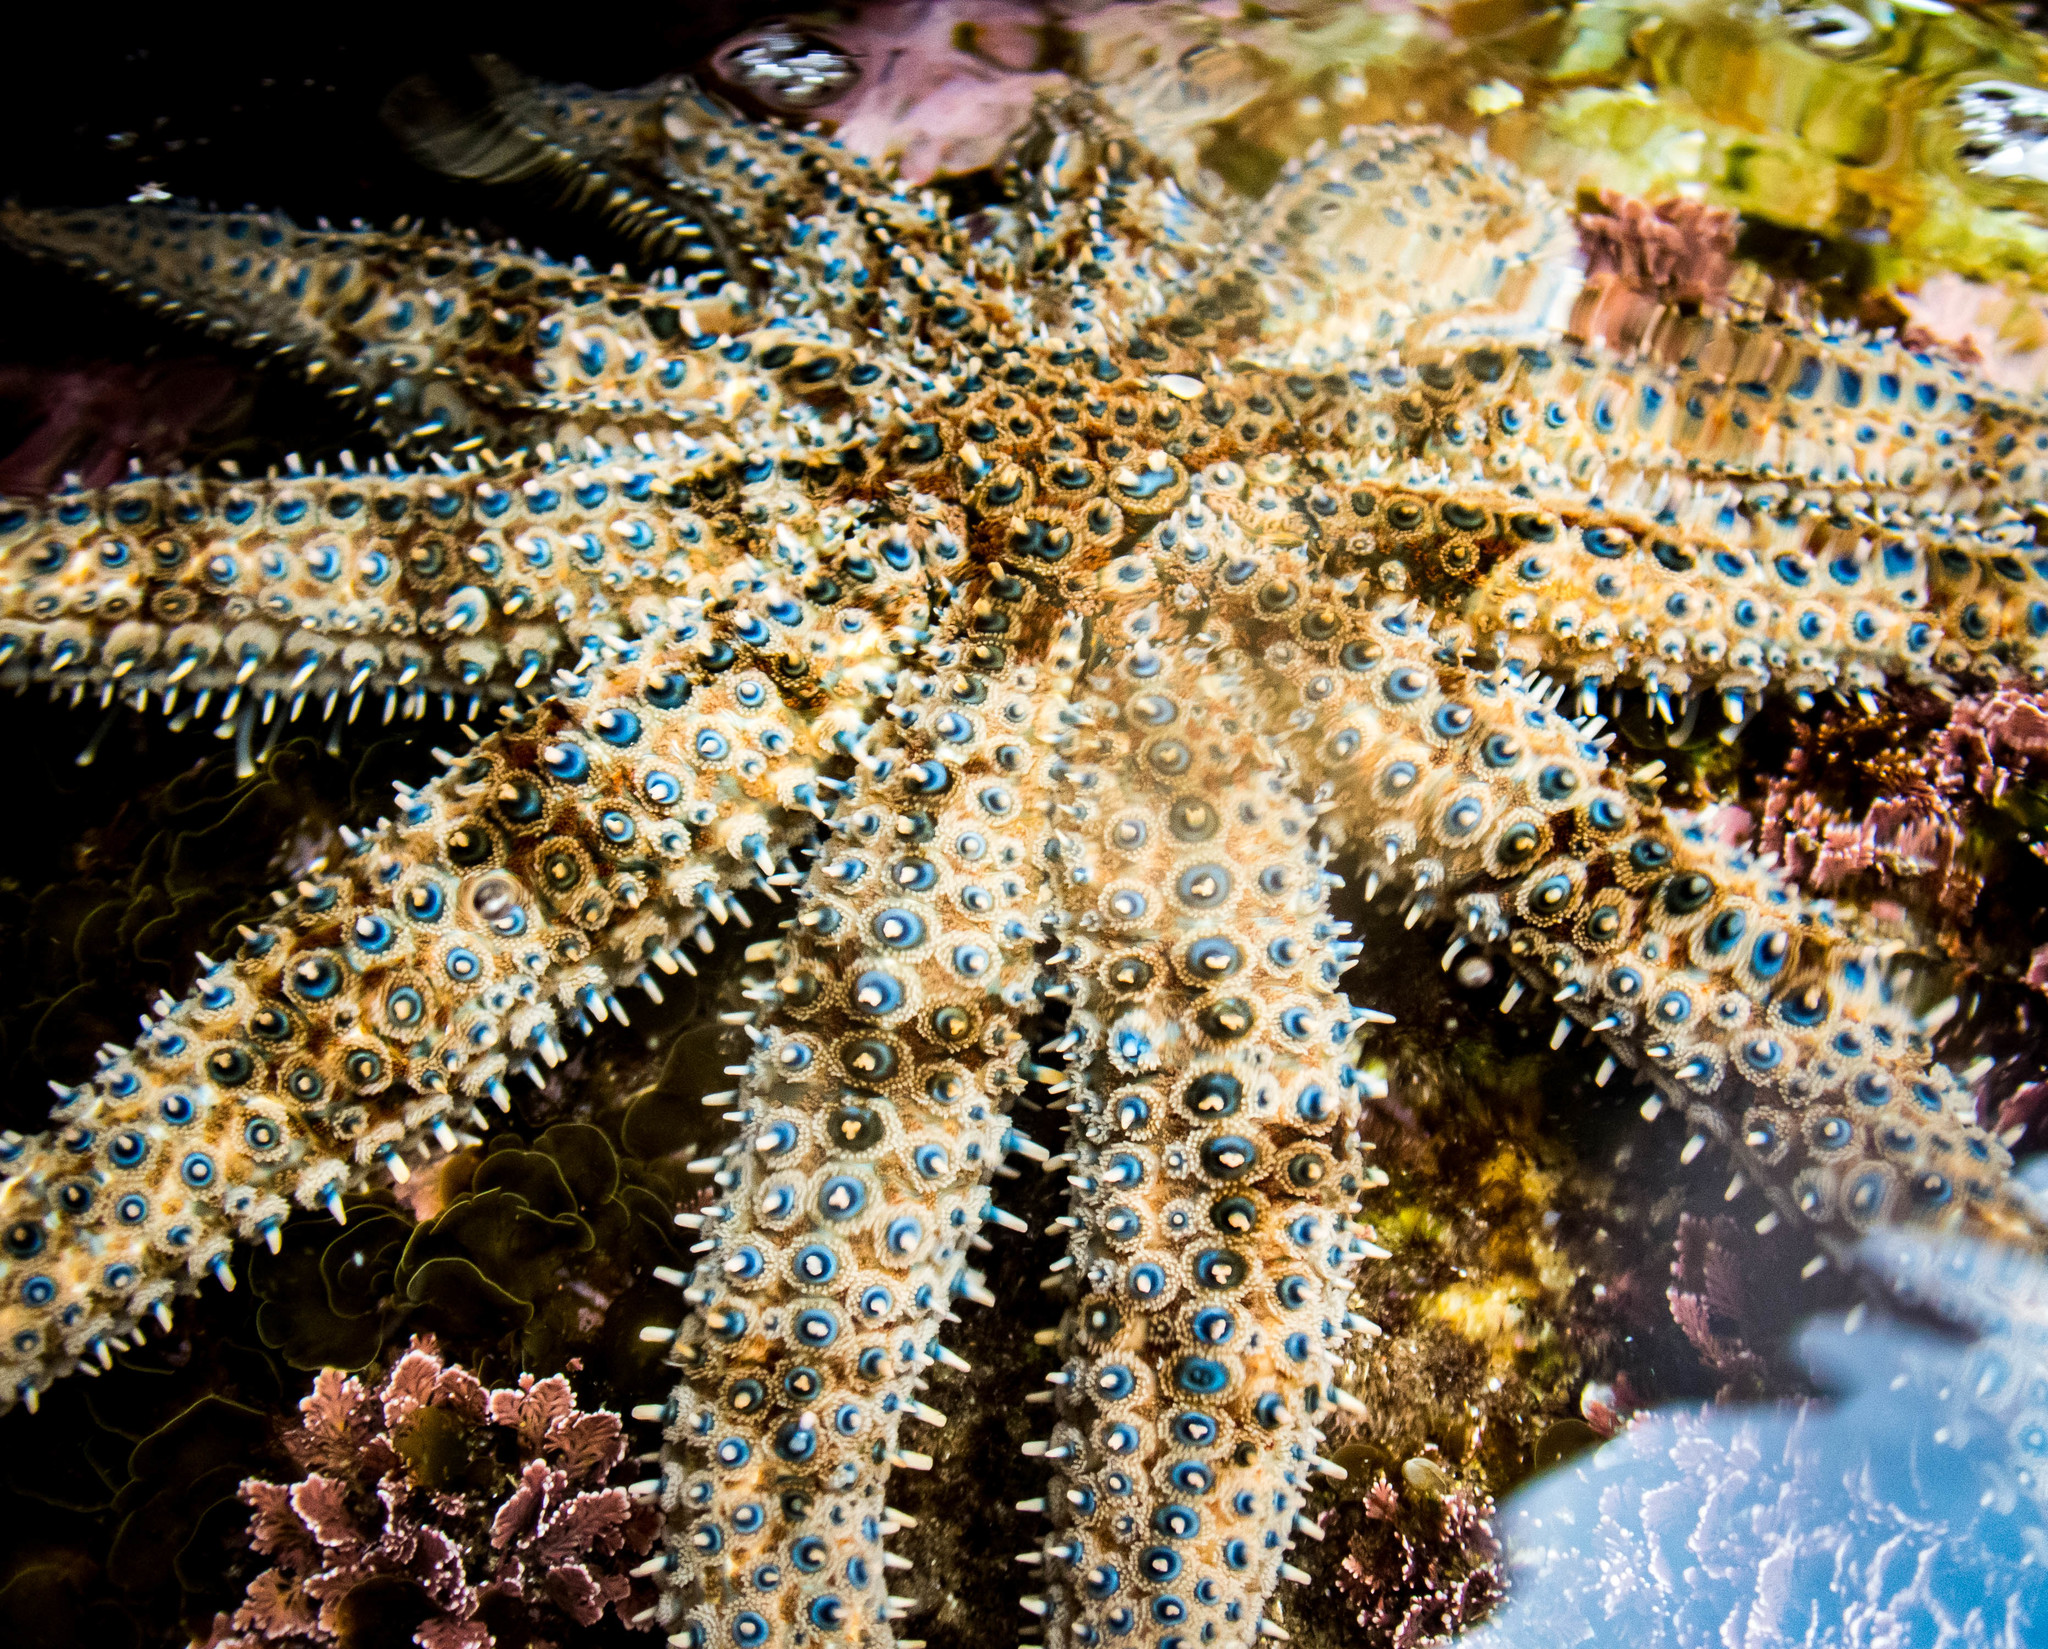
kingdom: Animalia
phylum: Echinodermata
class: Asteroidea
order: Forcipulatida
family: Asteriidae
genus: Coscinasterias
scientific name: Coscinasterias muricata
